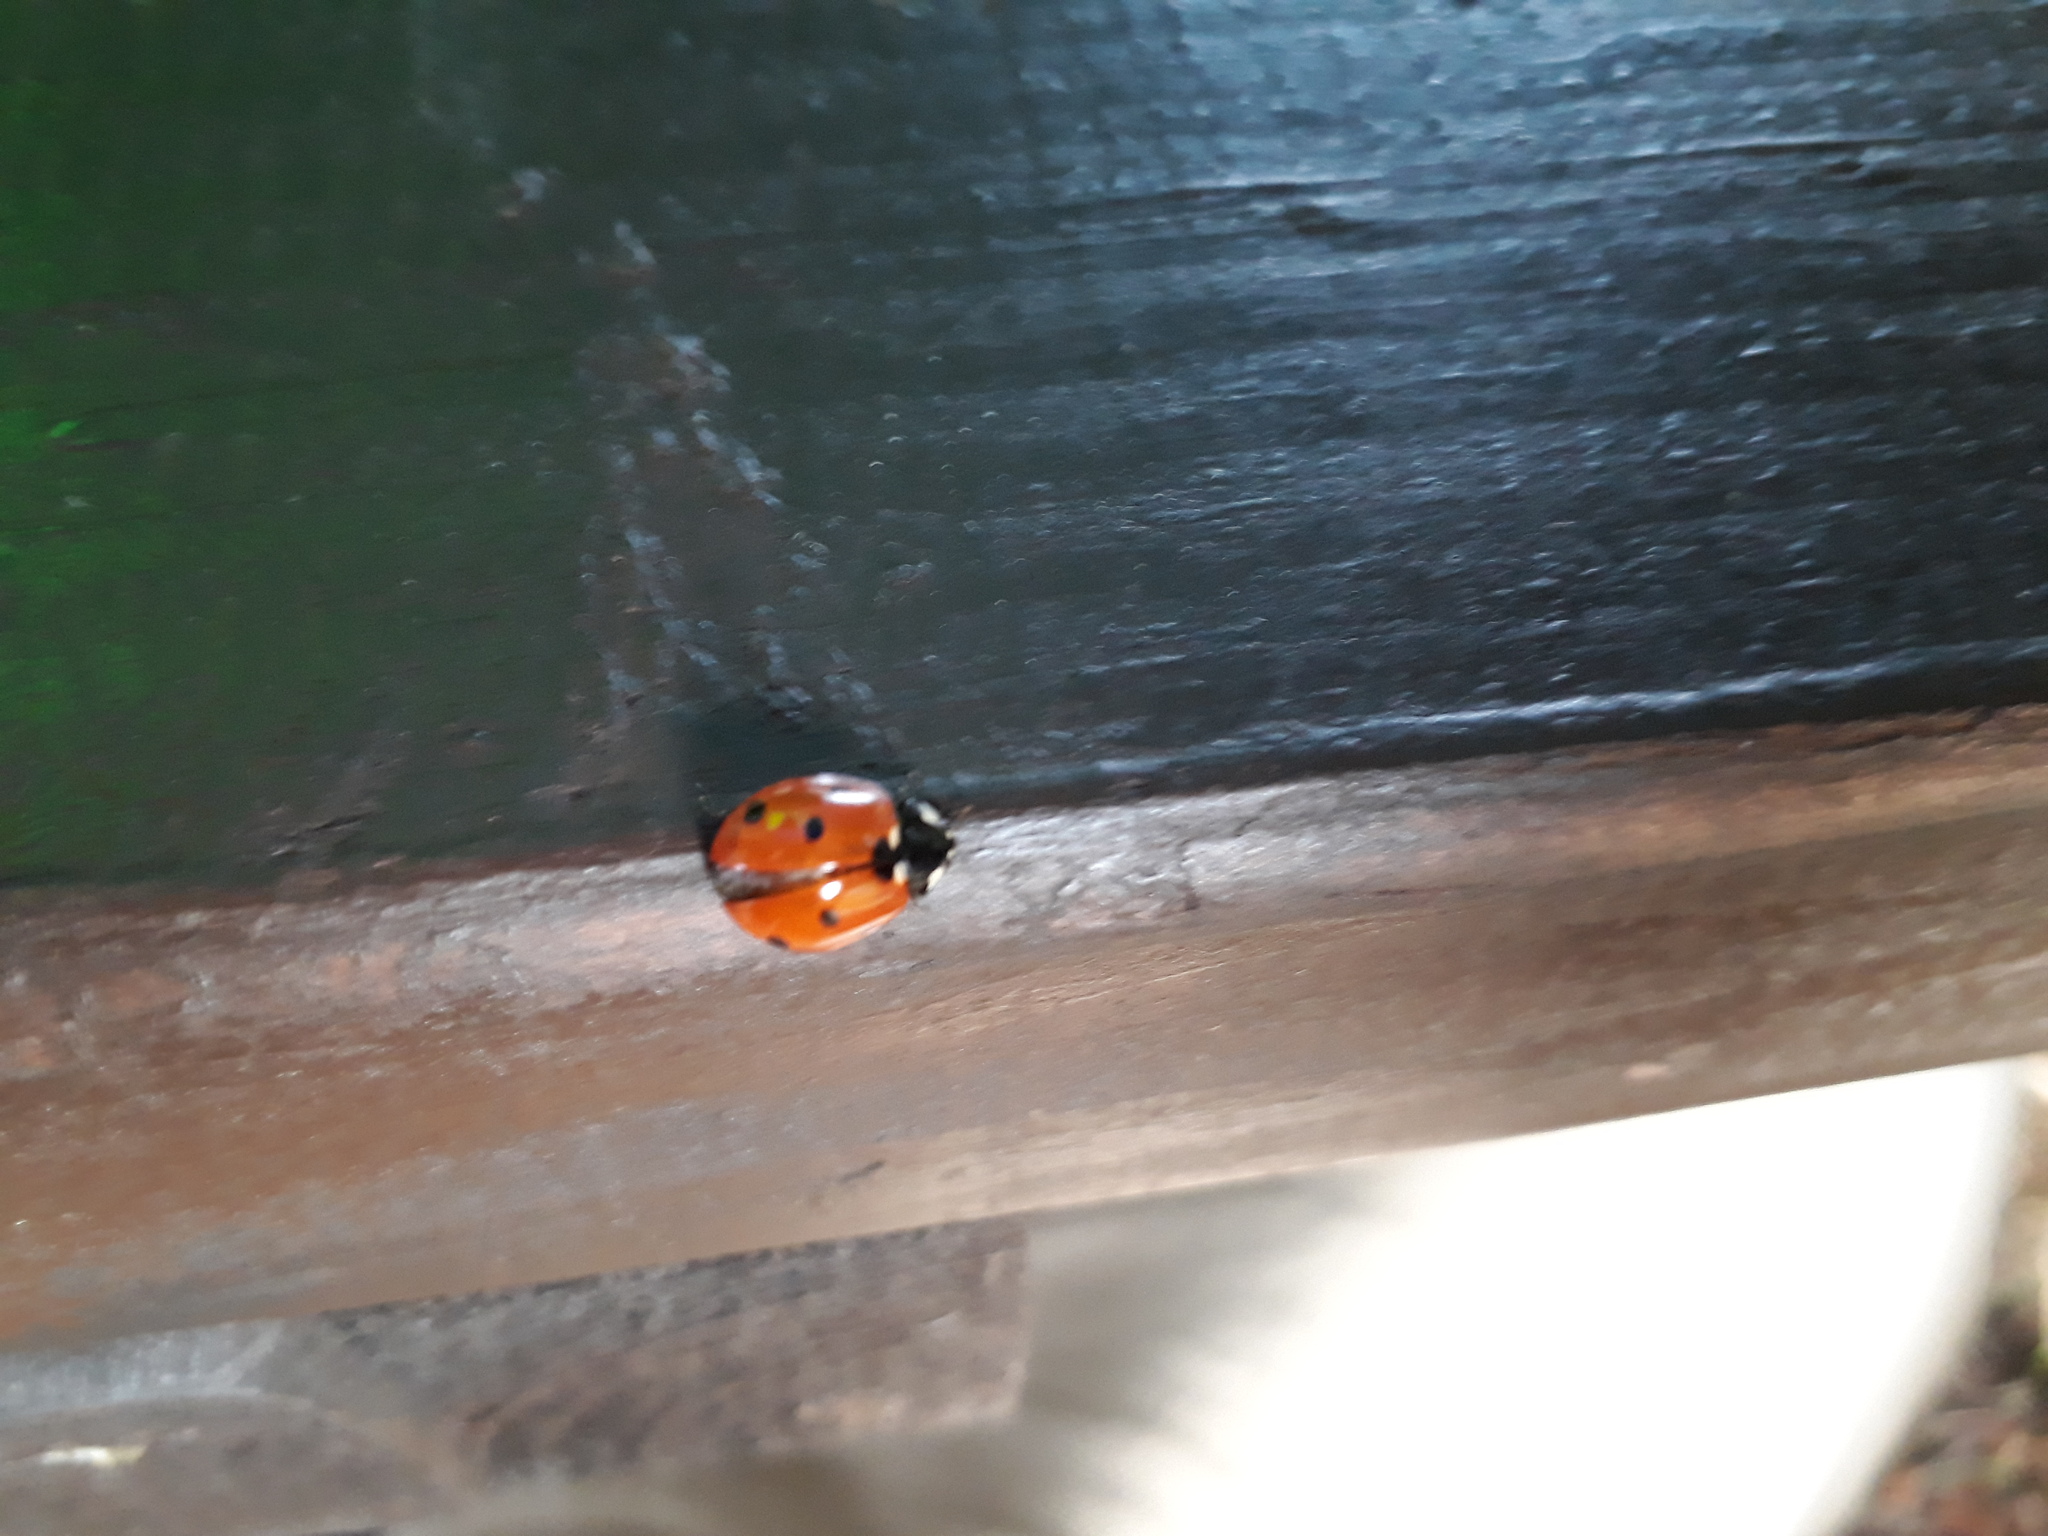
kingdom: Animalia
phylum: Arthropoda
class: Insecta
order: Coleoptera
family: Coccinellidae
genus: Coccinella
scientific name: Coccinella septempunctata
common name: Sevenspotted lady beetle
